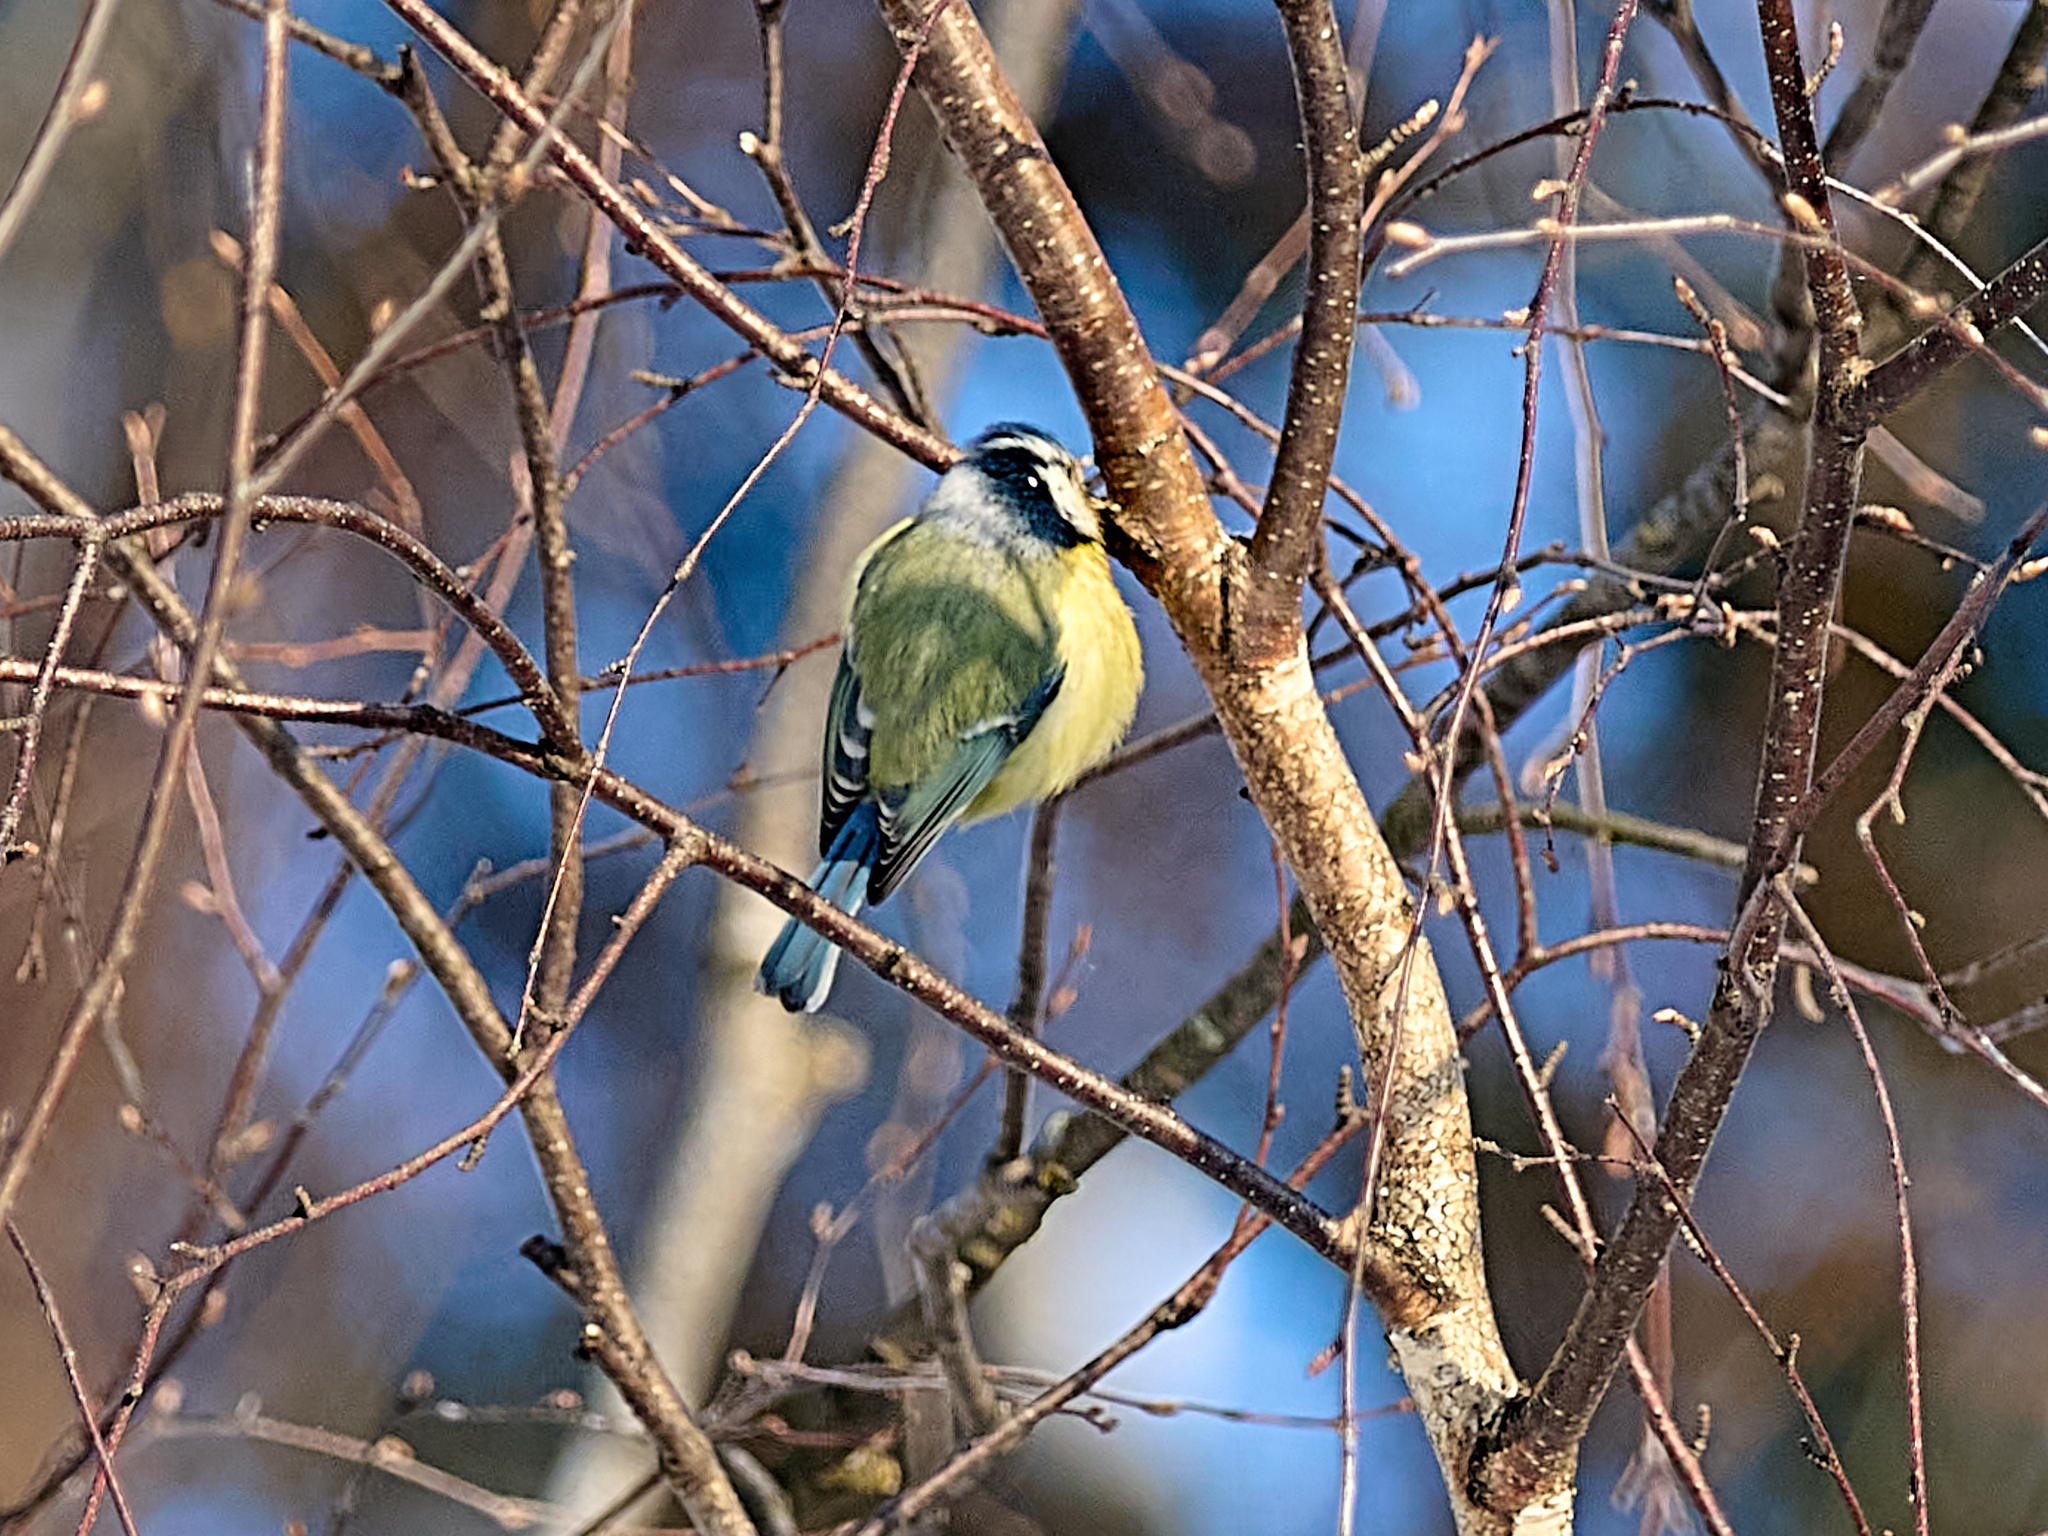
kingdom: Animalia
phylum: Chordata
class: Aves
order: Passeriformes
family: Paridae
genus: Cyanistes
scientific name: Cyanistes caeruleus
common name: Eurasian blue tit
